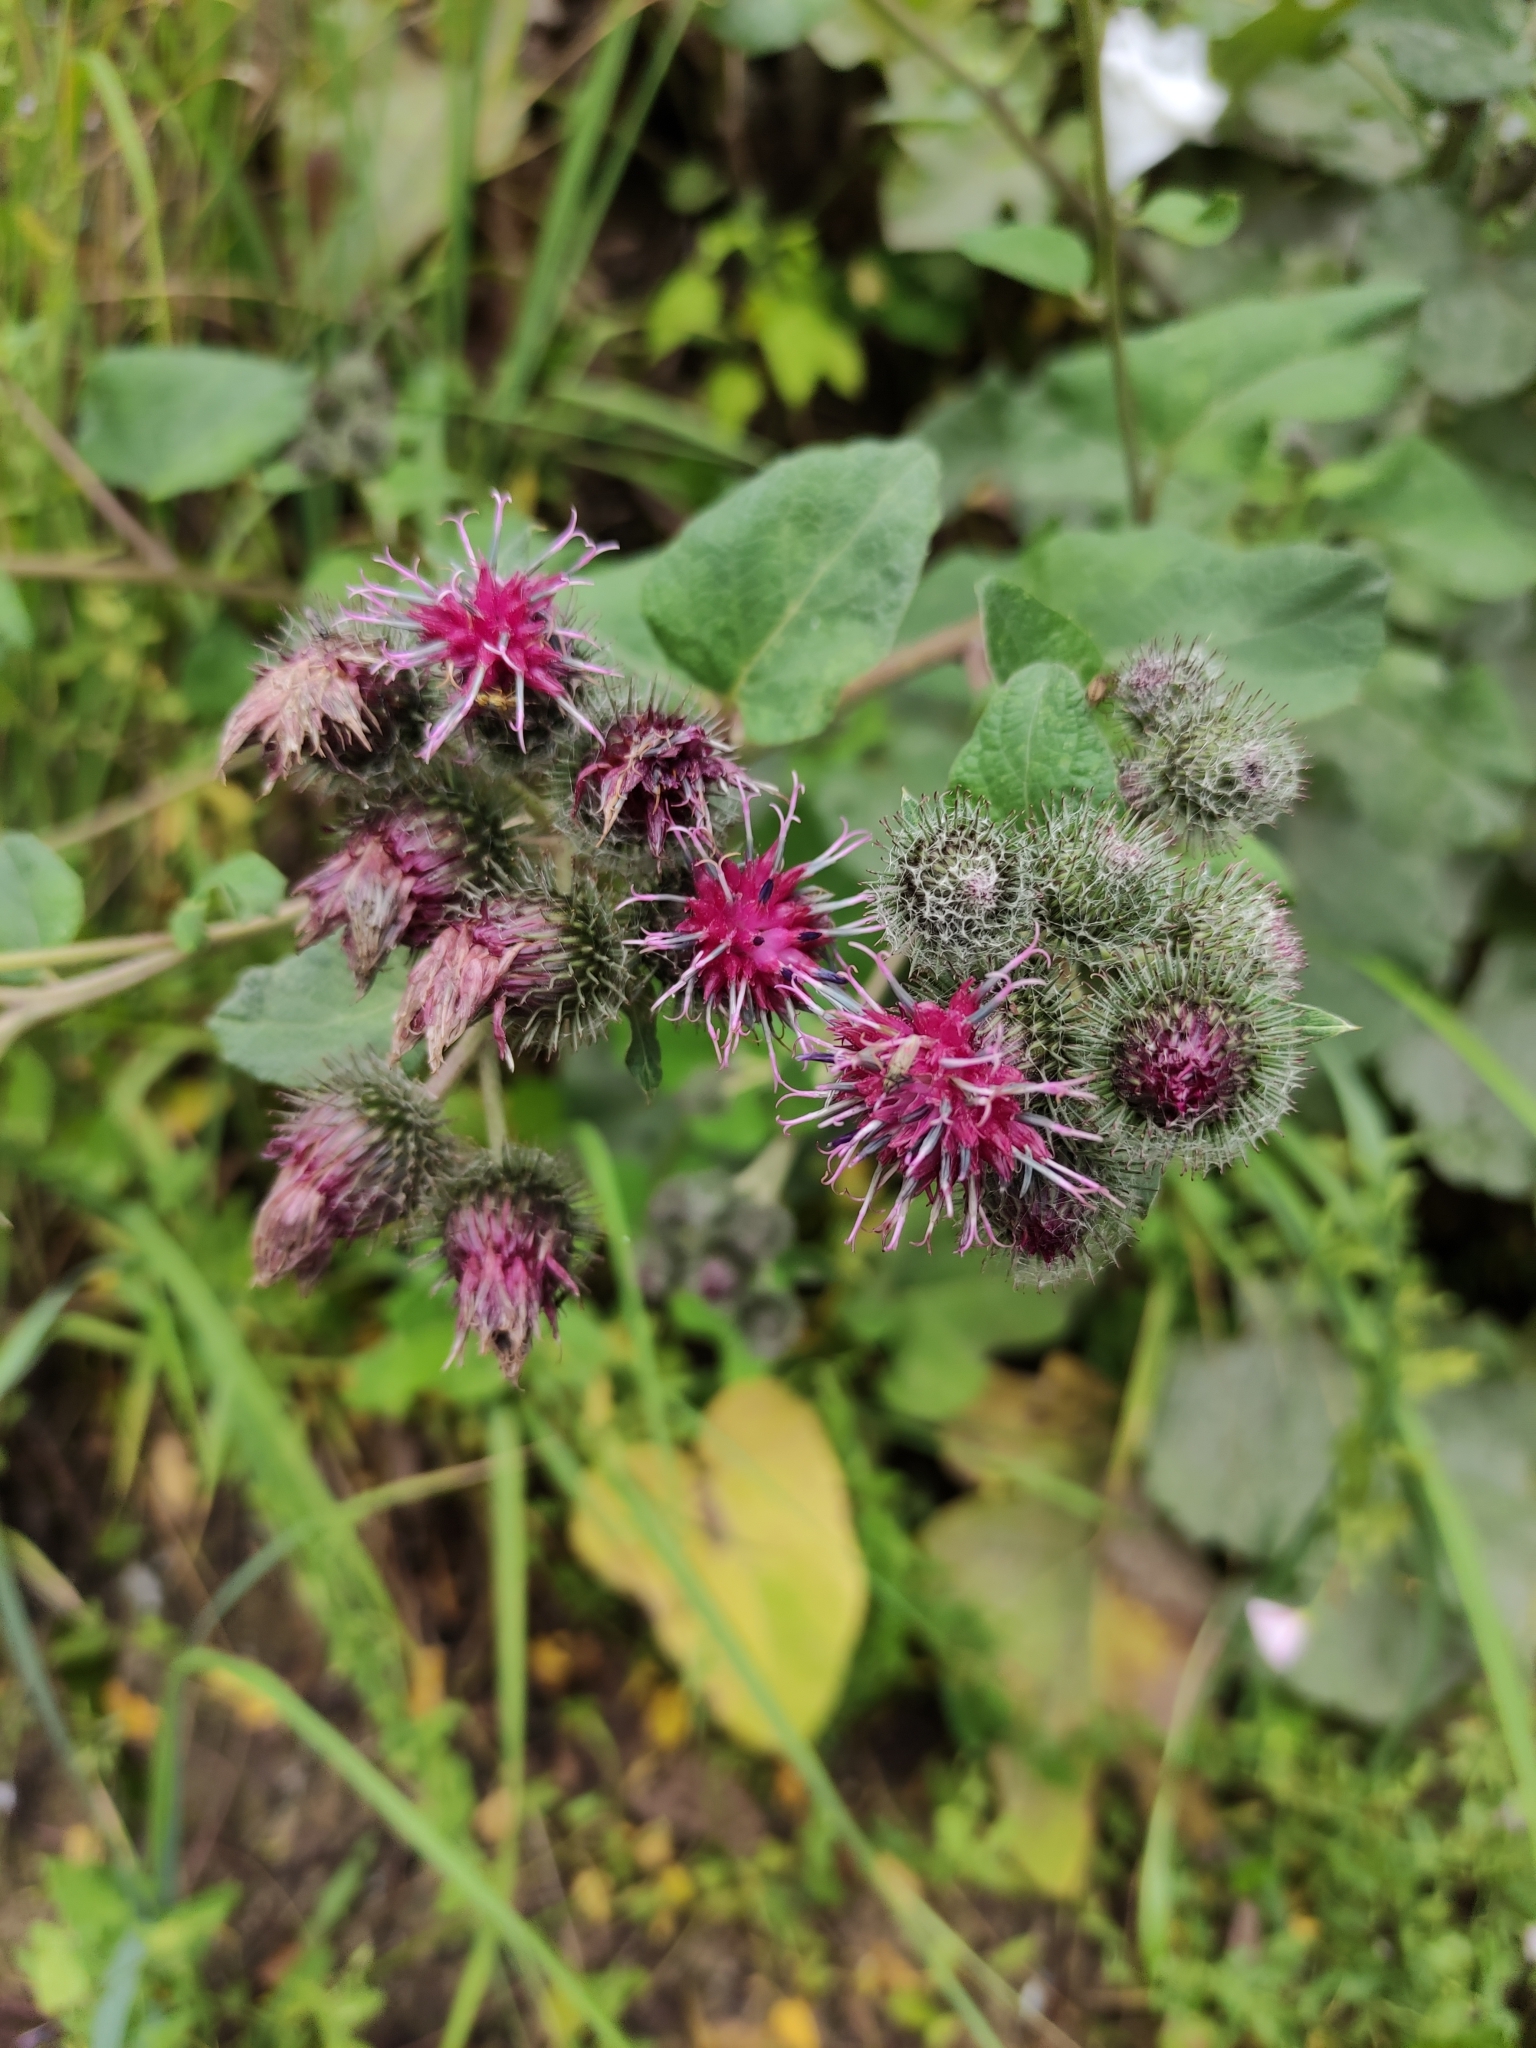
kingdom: Plantae
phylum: Tracheophyta
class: Magnoliopsida
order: Asterales
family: Asteraceae
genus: Arctium
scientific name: Arctium tomentosum
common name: Woolly burdock
